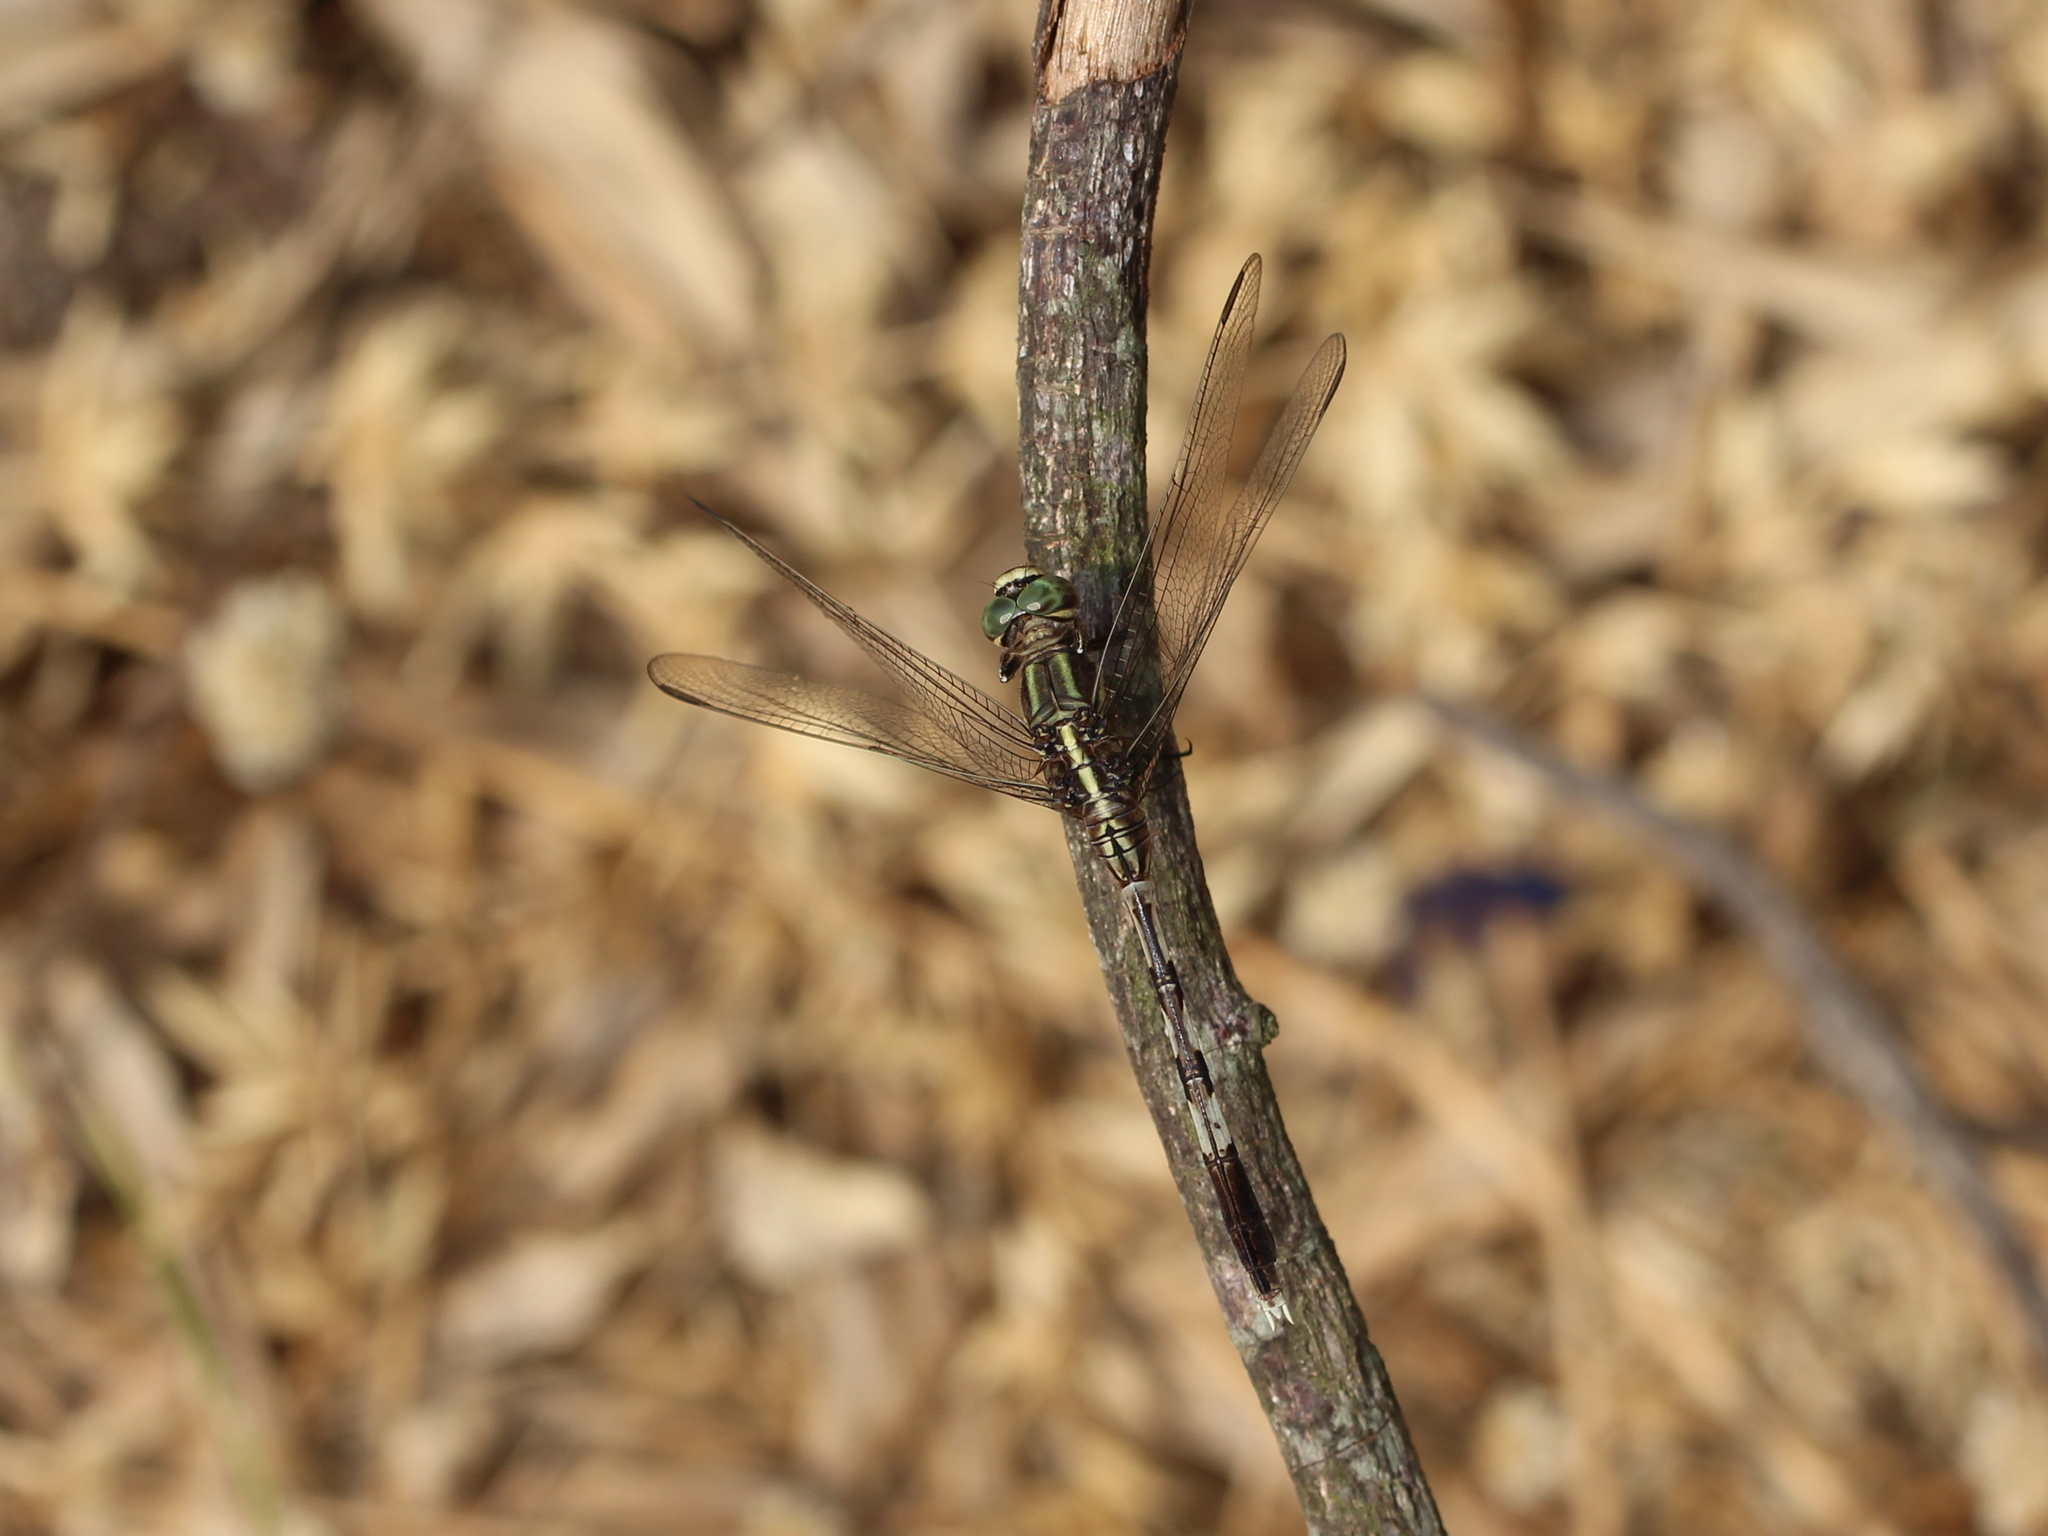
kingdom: Animalia
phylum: Arthropoda
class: Insecta
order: Odonata
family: Libellulidae
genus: Orthetrum
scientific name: Orthetrum sabina
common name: Slender skimmer
